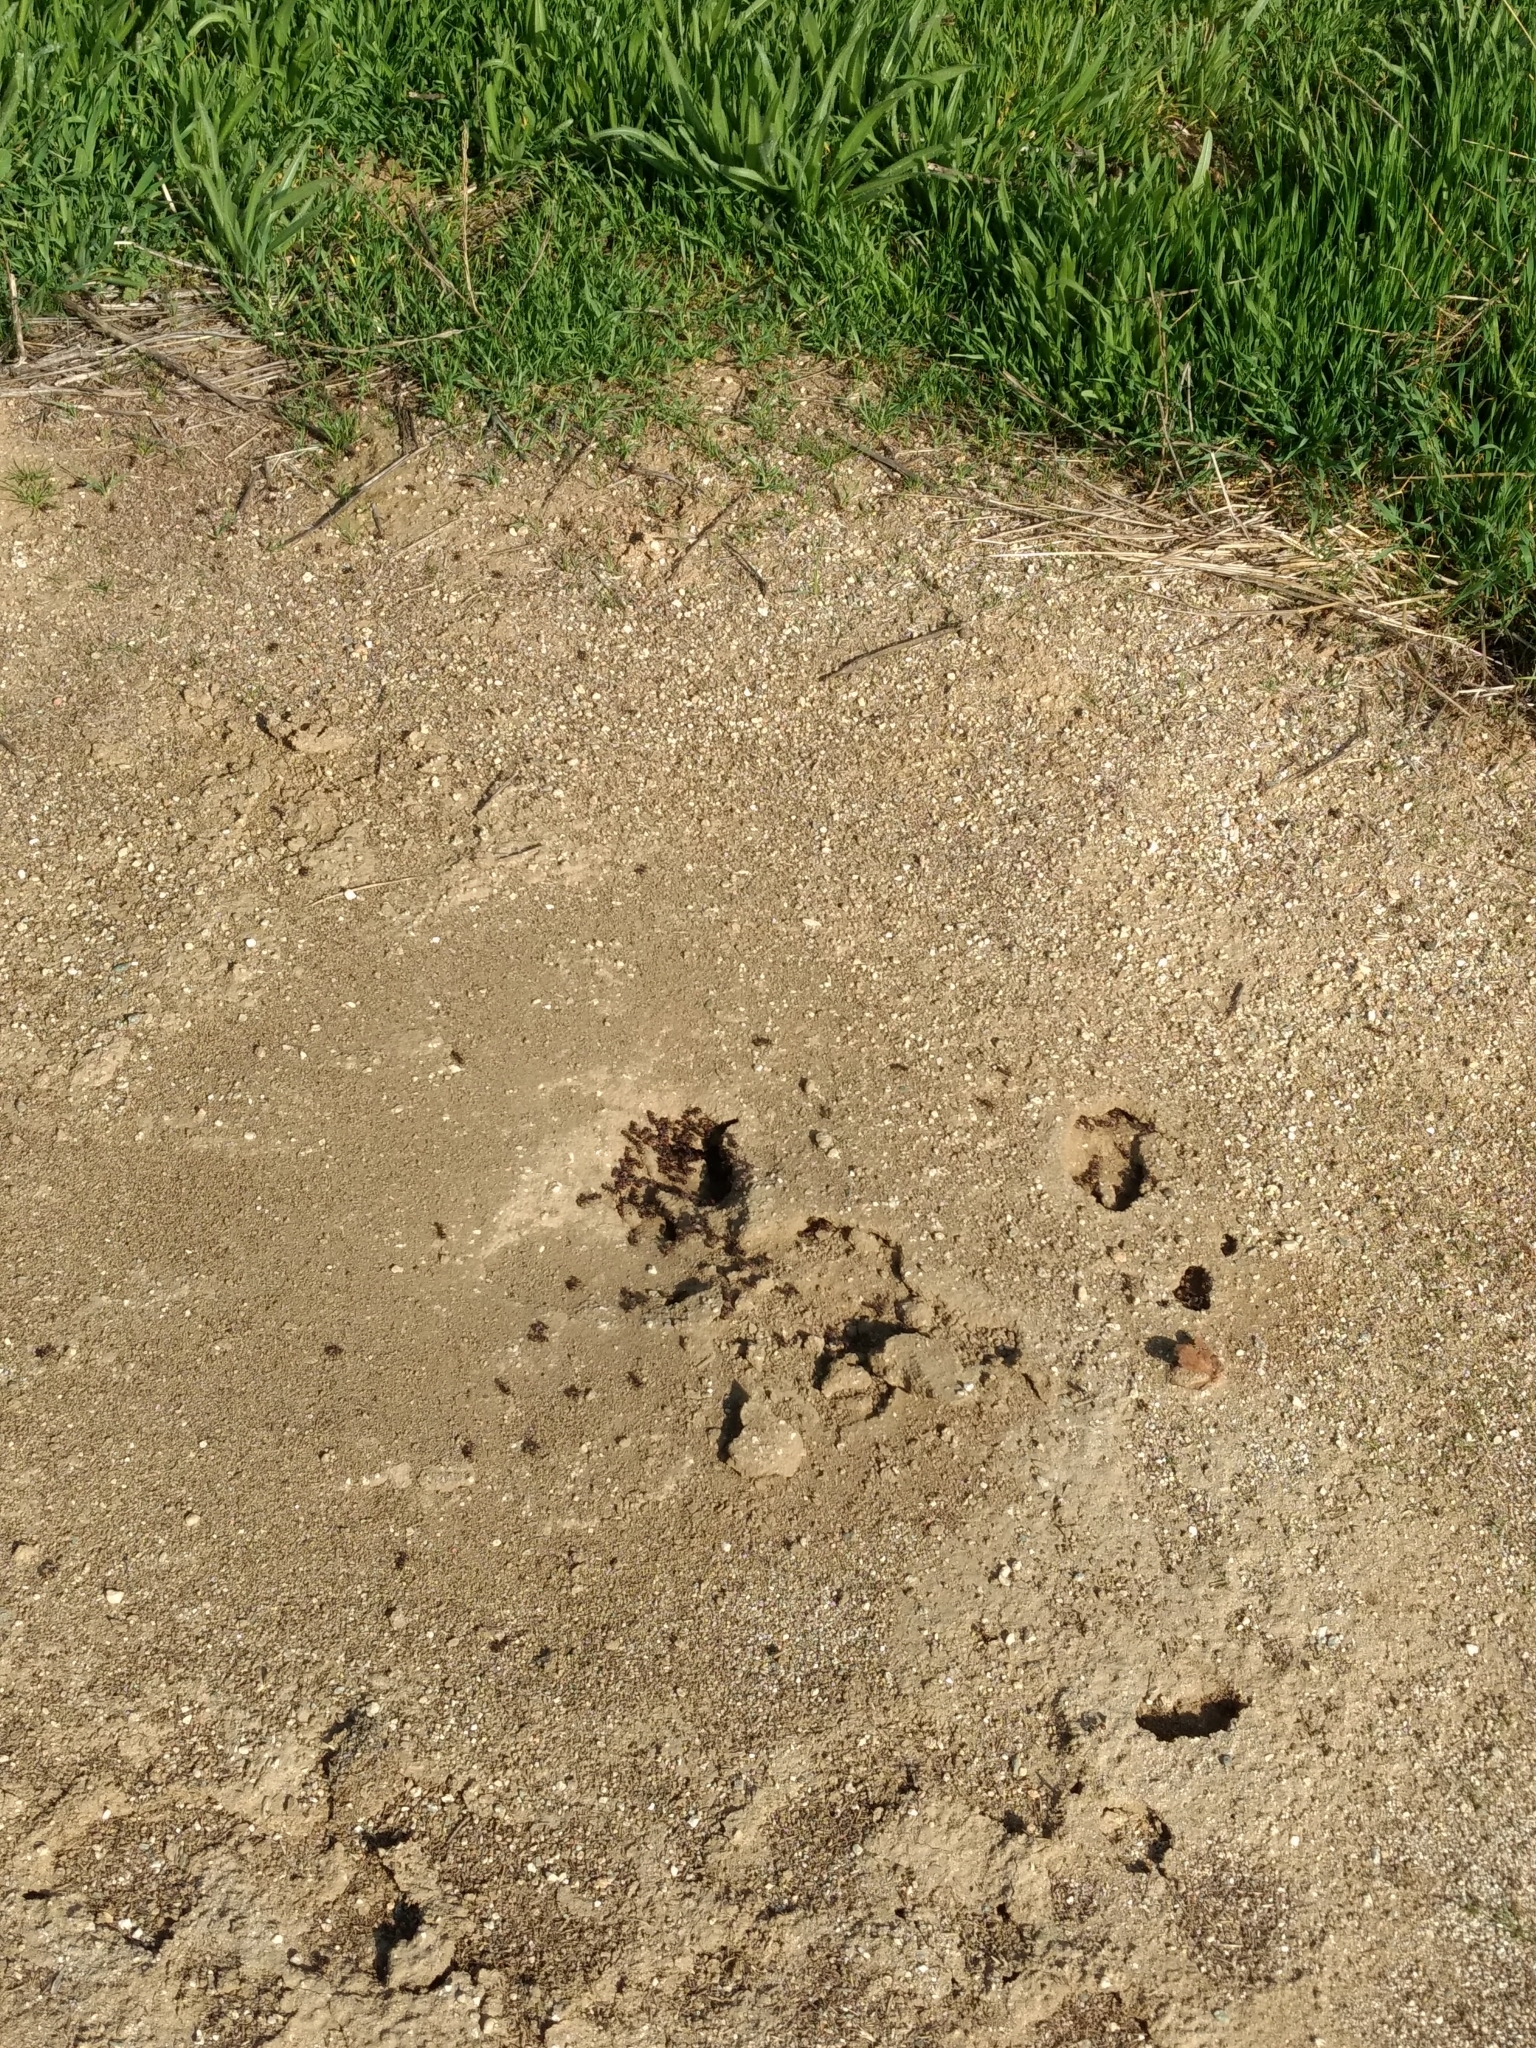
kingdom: Animalia
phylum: Arthropoda
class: Insecta
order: Hymenoptera
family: Formicidae
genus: Pogonomyrmex
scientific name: Pogonomyrmex rugosus
